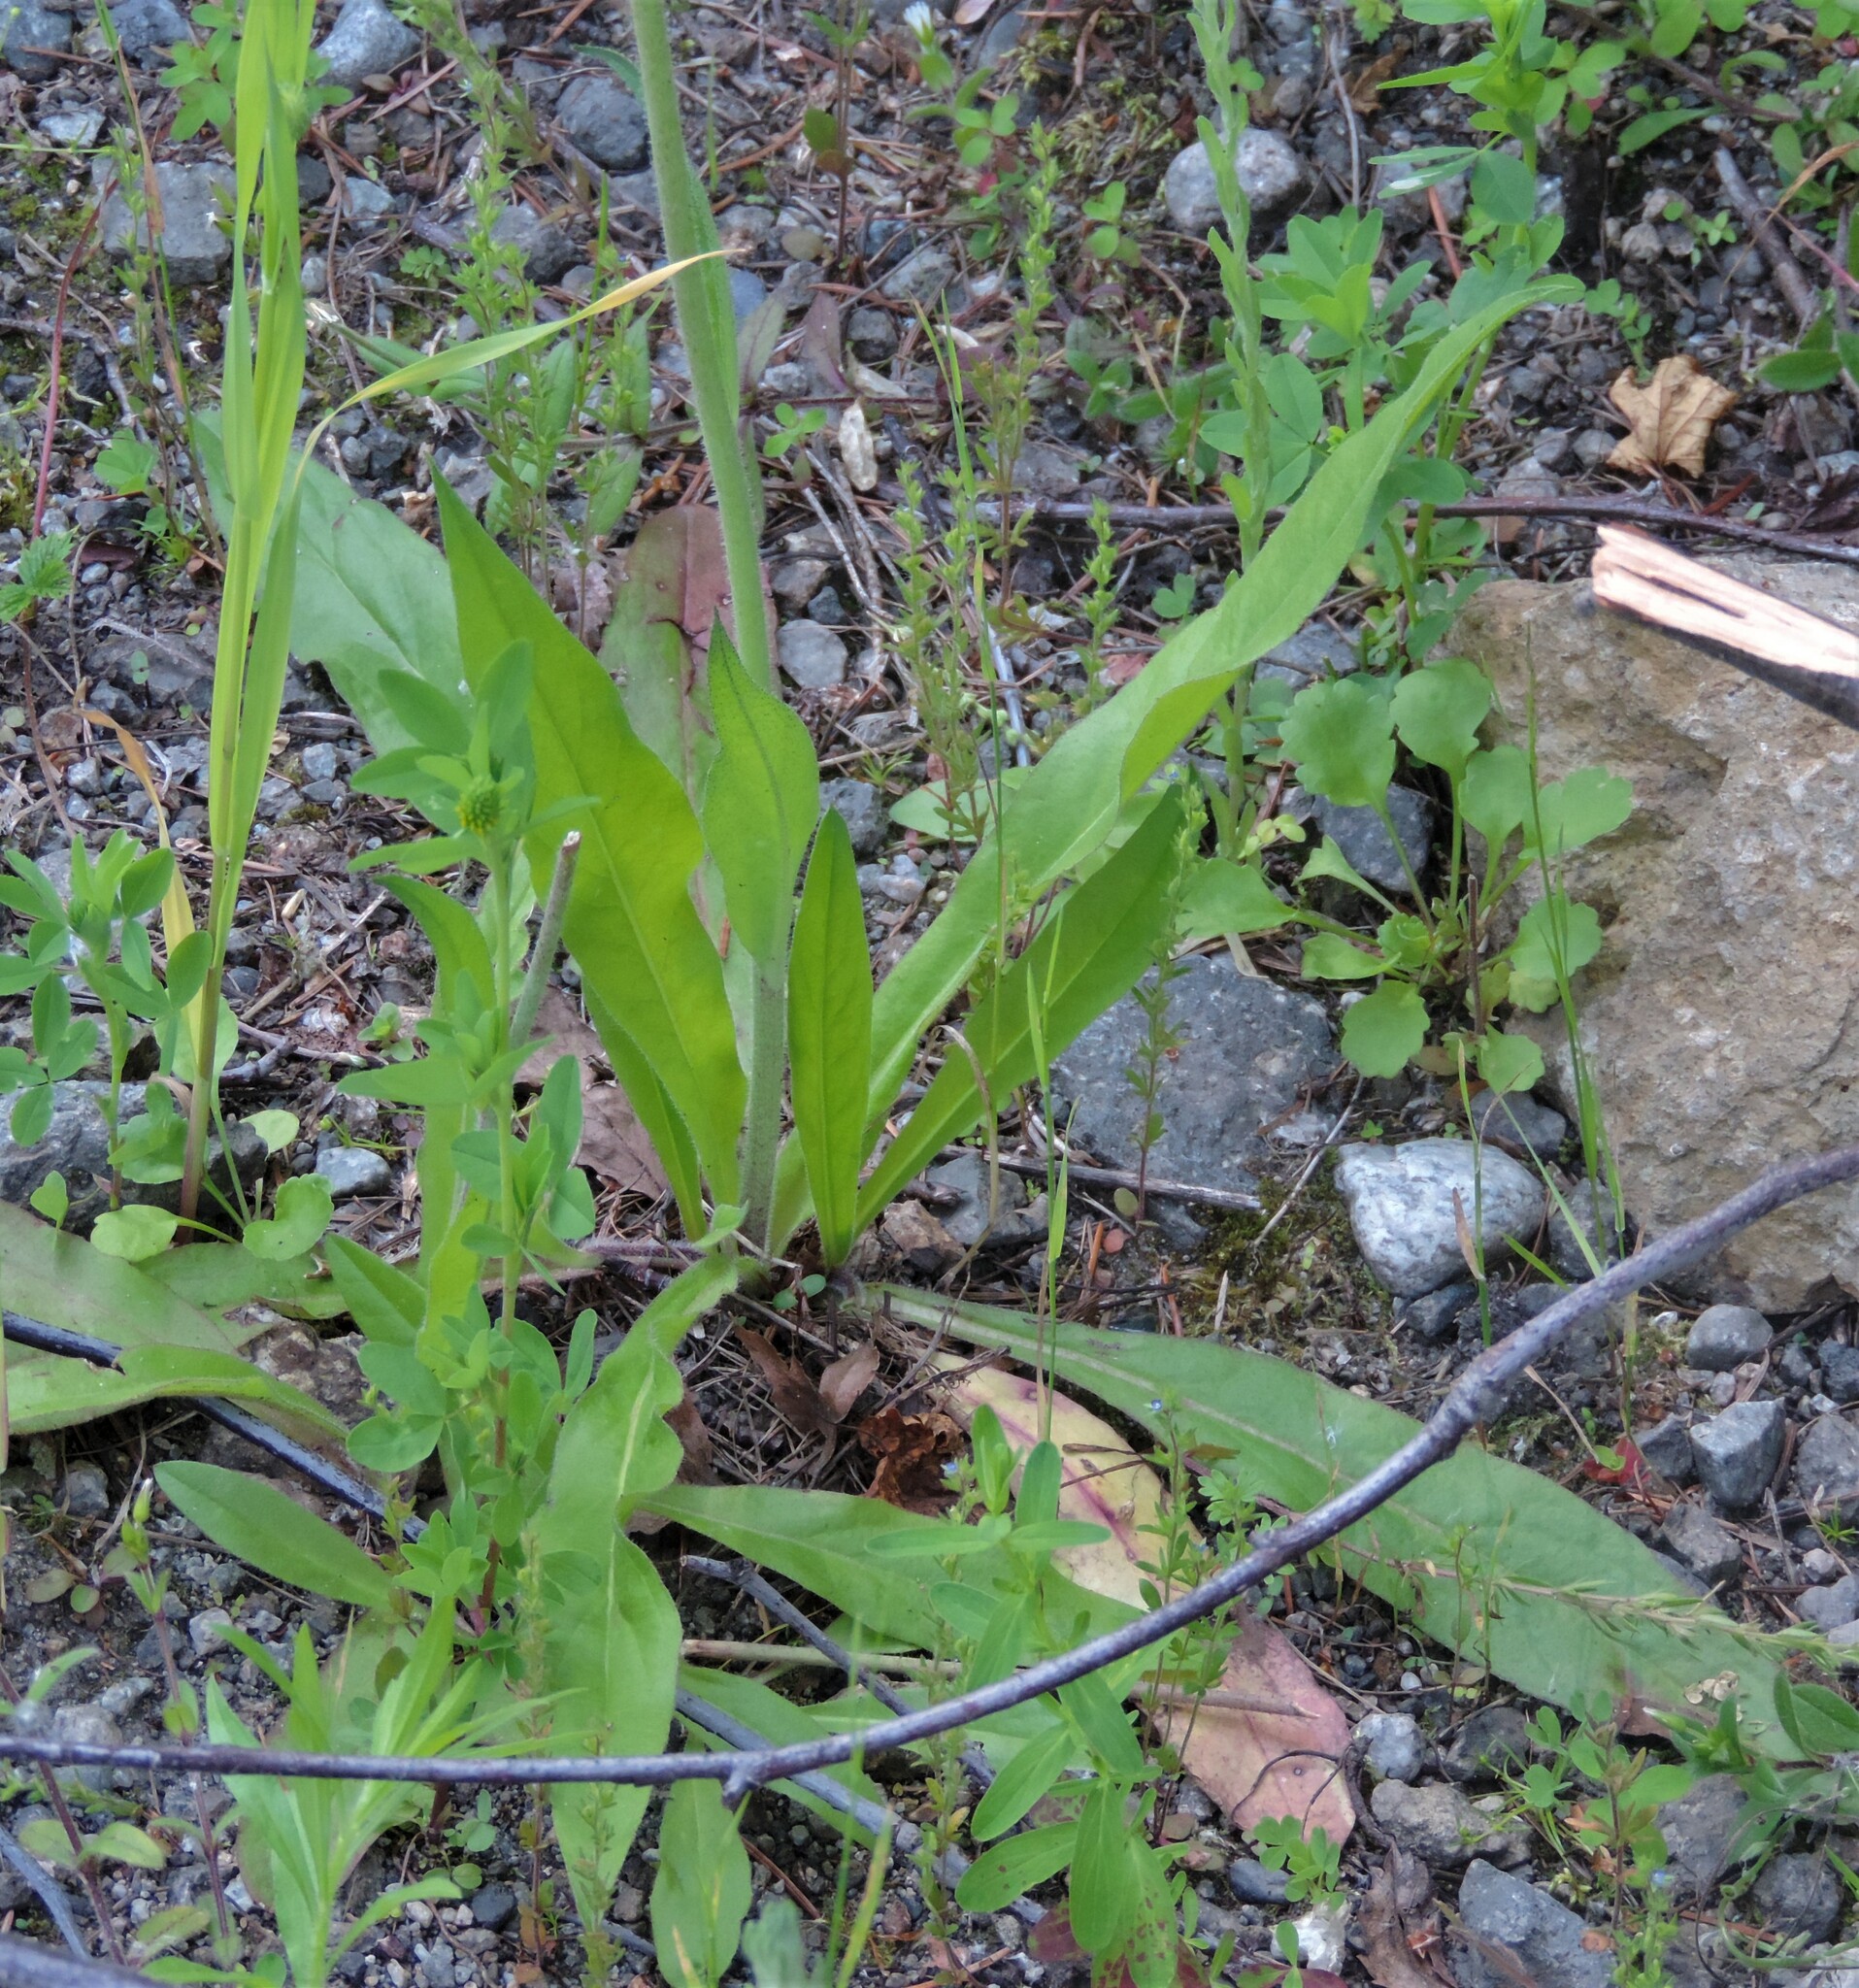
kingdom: Plantae
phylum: Tracheophyta
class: Magnoliopsida
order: Asterales
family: Asteraceae
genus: Pilosella
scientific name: Pilosella caespitosa
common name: Yellow fox-and-cubs
